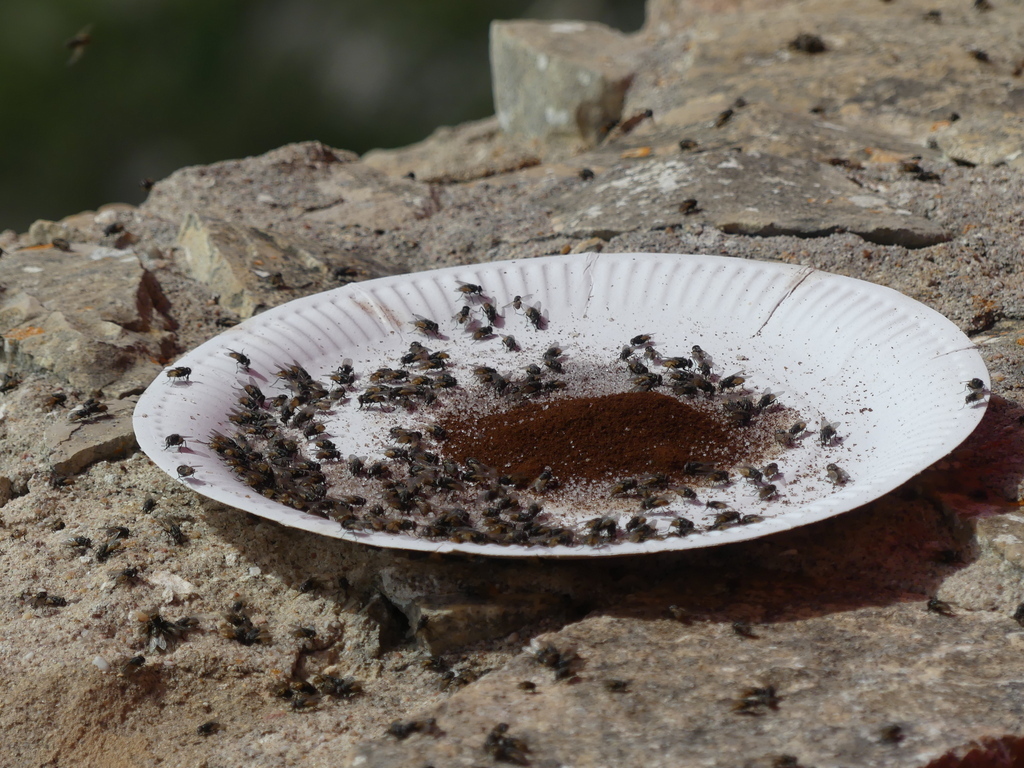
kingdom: Animalia
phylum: Arthropoda
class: Insecta
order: Diptera
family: Muscidae
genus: Musca
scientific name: Musca domestica
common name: House fly
